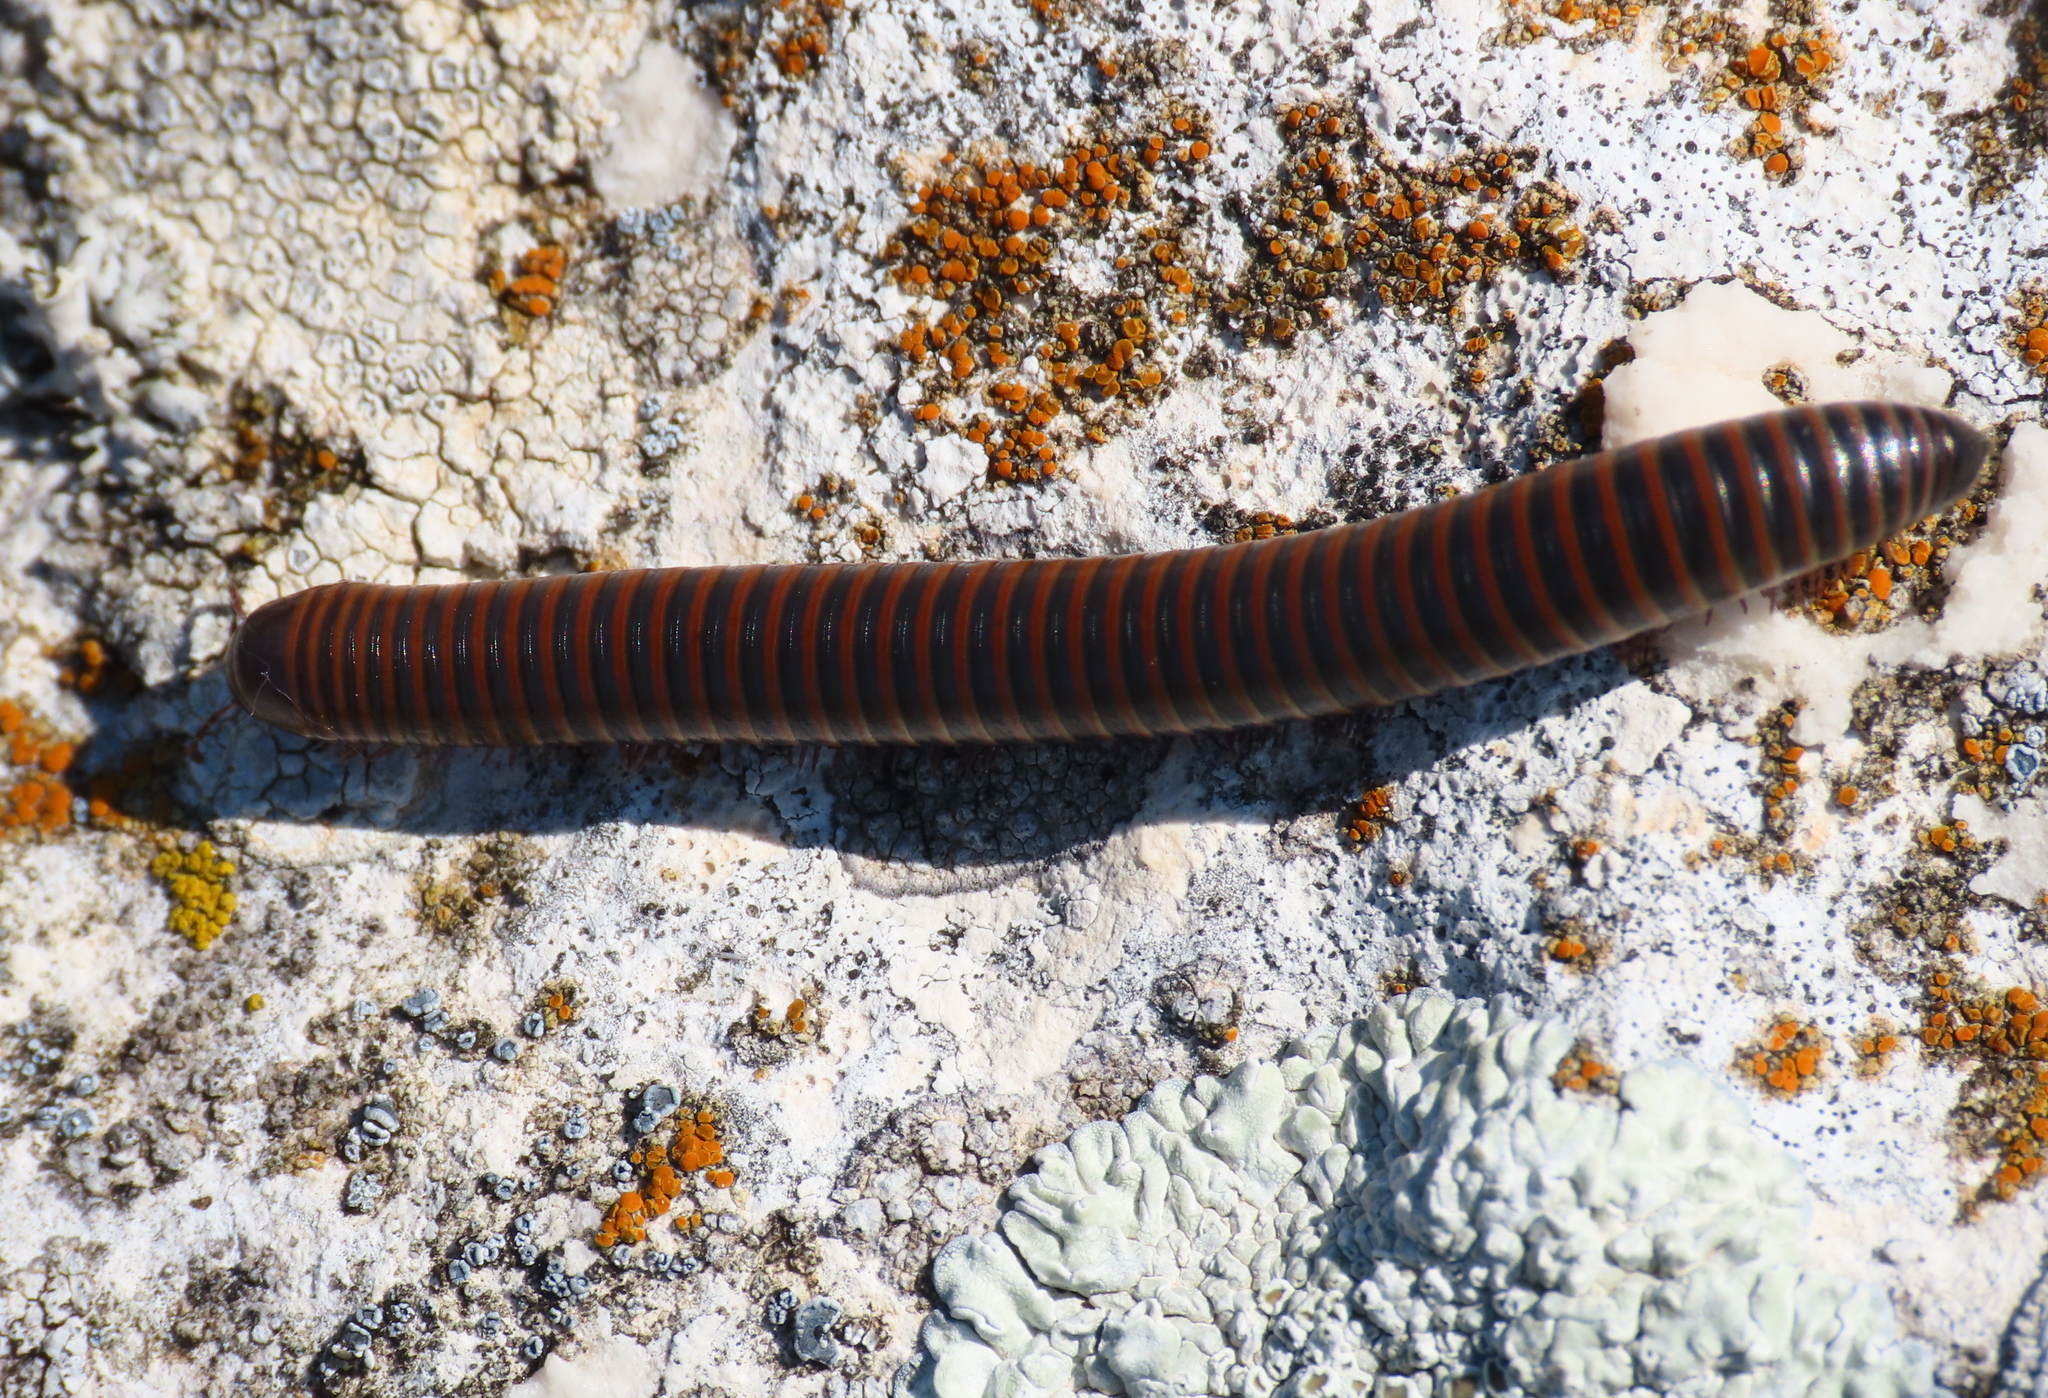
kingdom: Animalia
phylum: Arthropoda
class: Diplopoda
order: Julida
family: Julidae
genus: Acanthoiulus
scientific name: Acanthoiulus cassinensis
